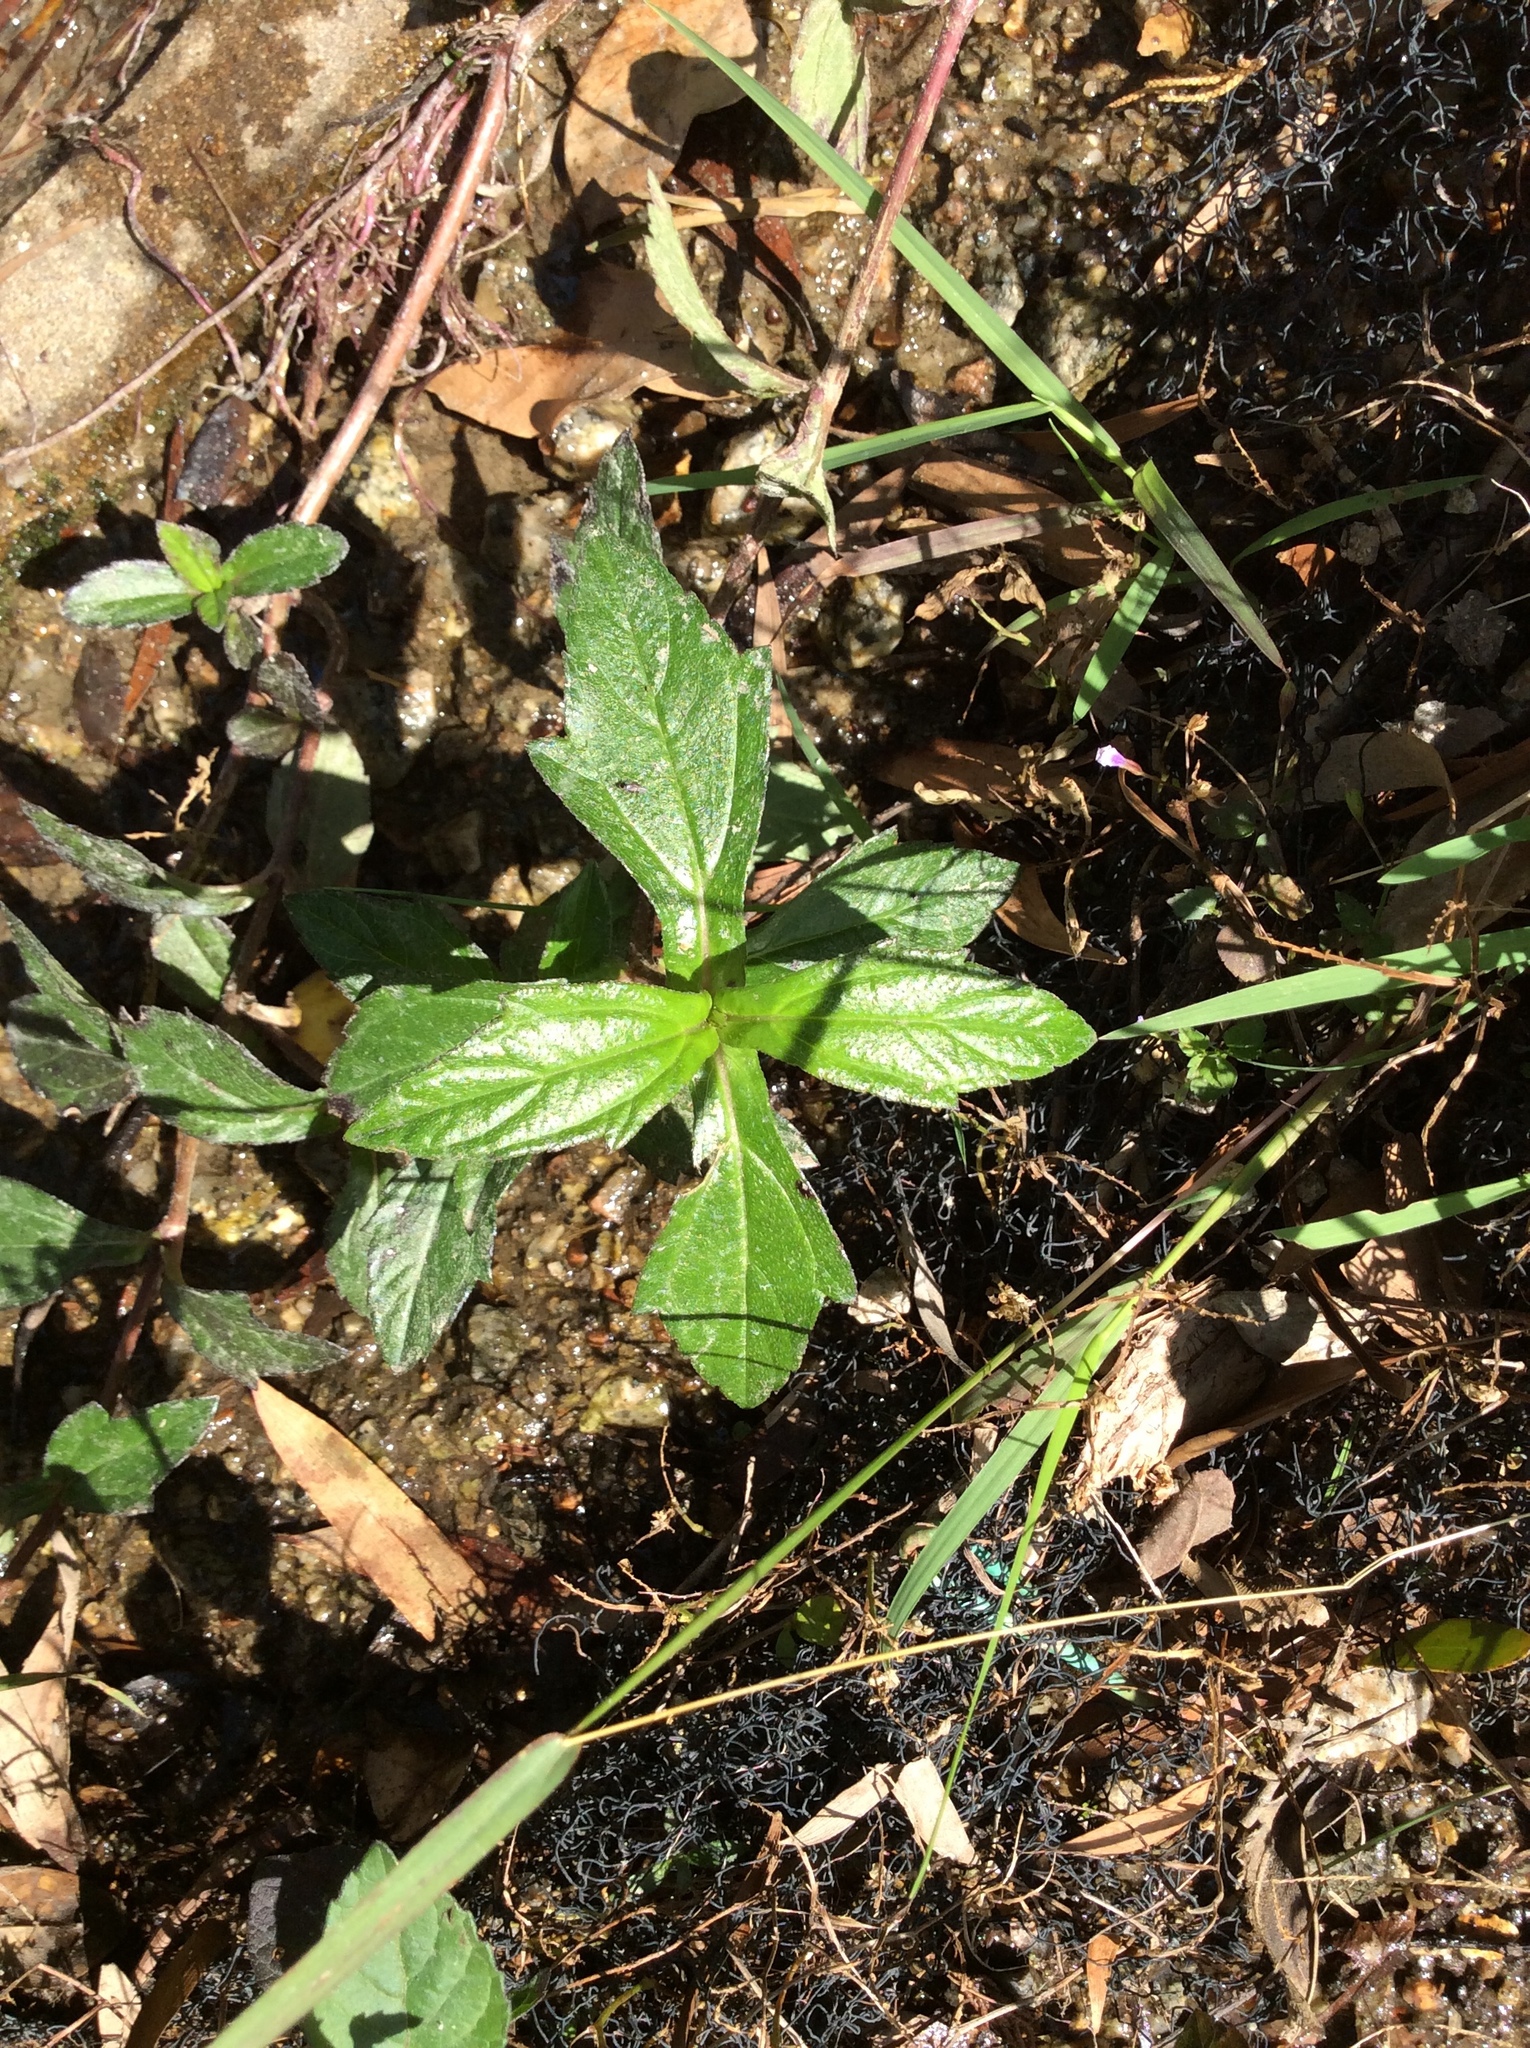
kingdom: Plantae
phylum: Tracheophyta
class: Magnoliopsida
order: Asterales
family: Asteraceae
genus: Sphagneticola
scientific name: Sphagneticola trilobata
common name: Bay biscayne creeping-oxeye
